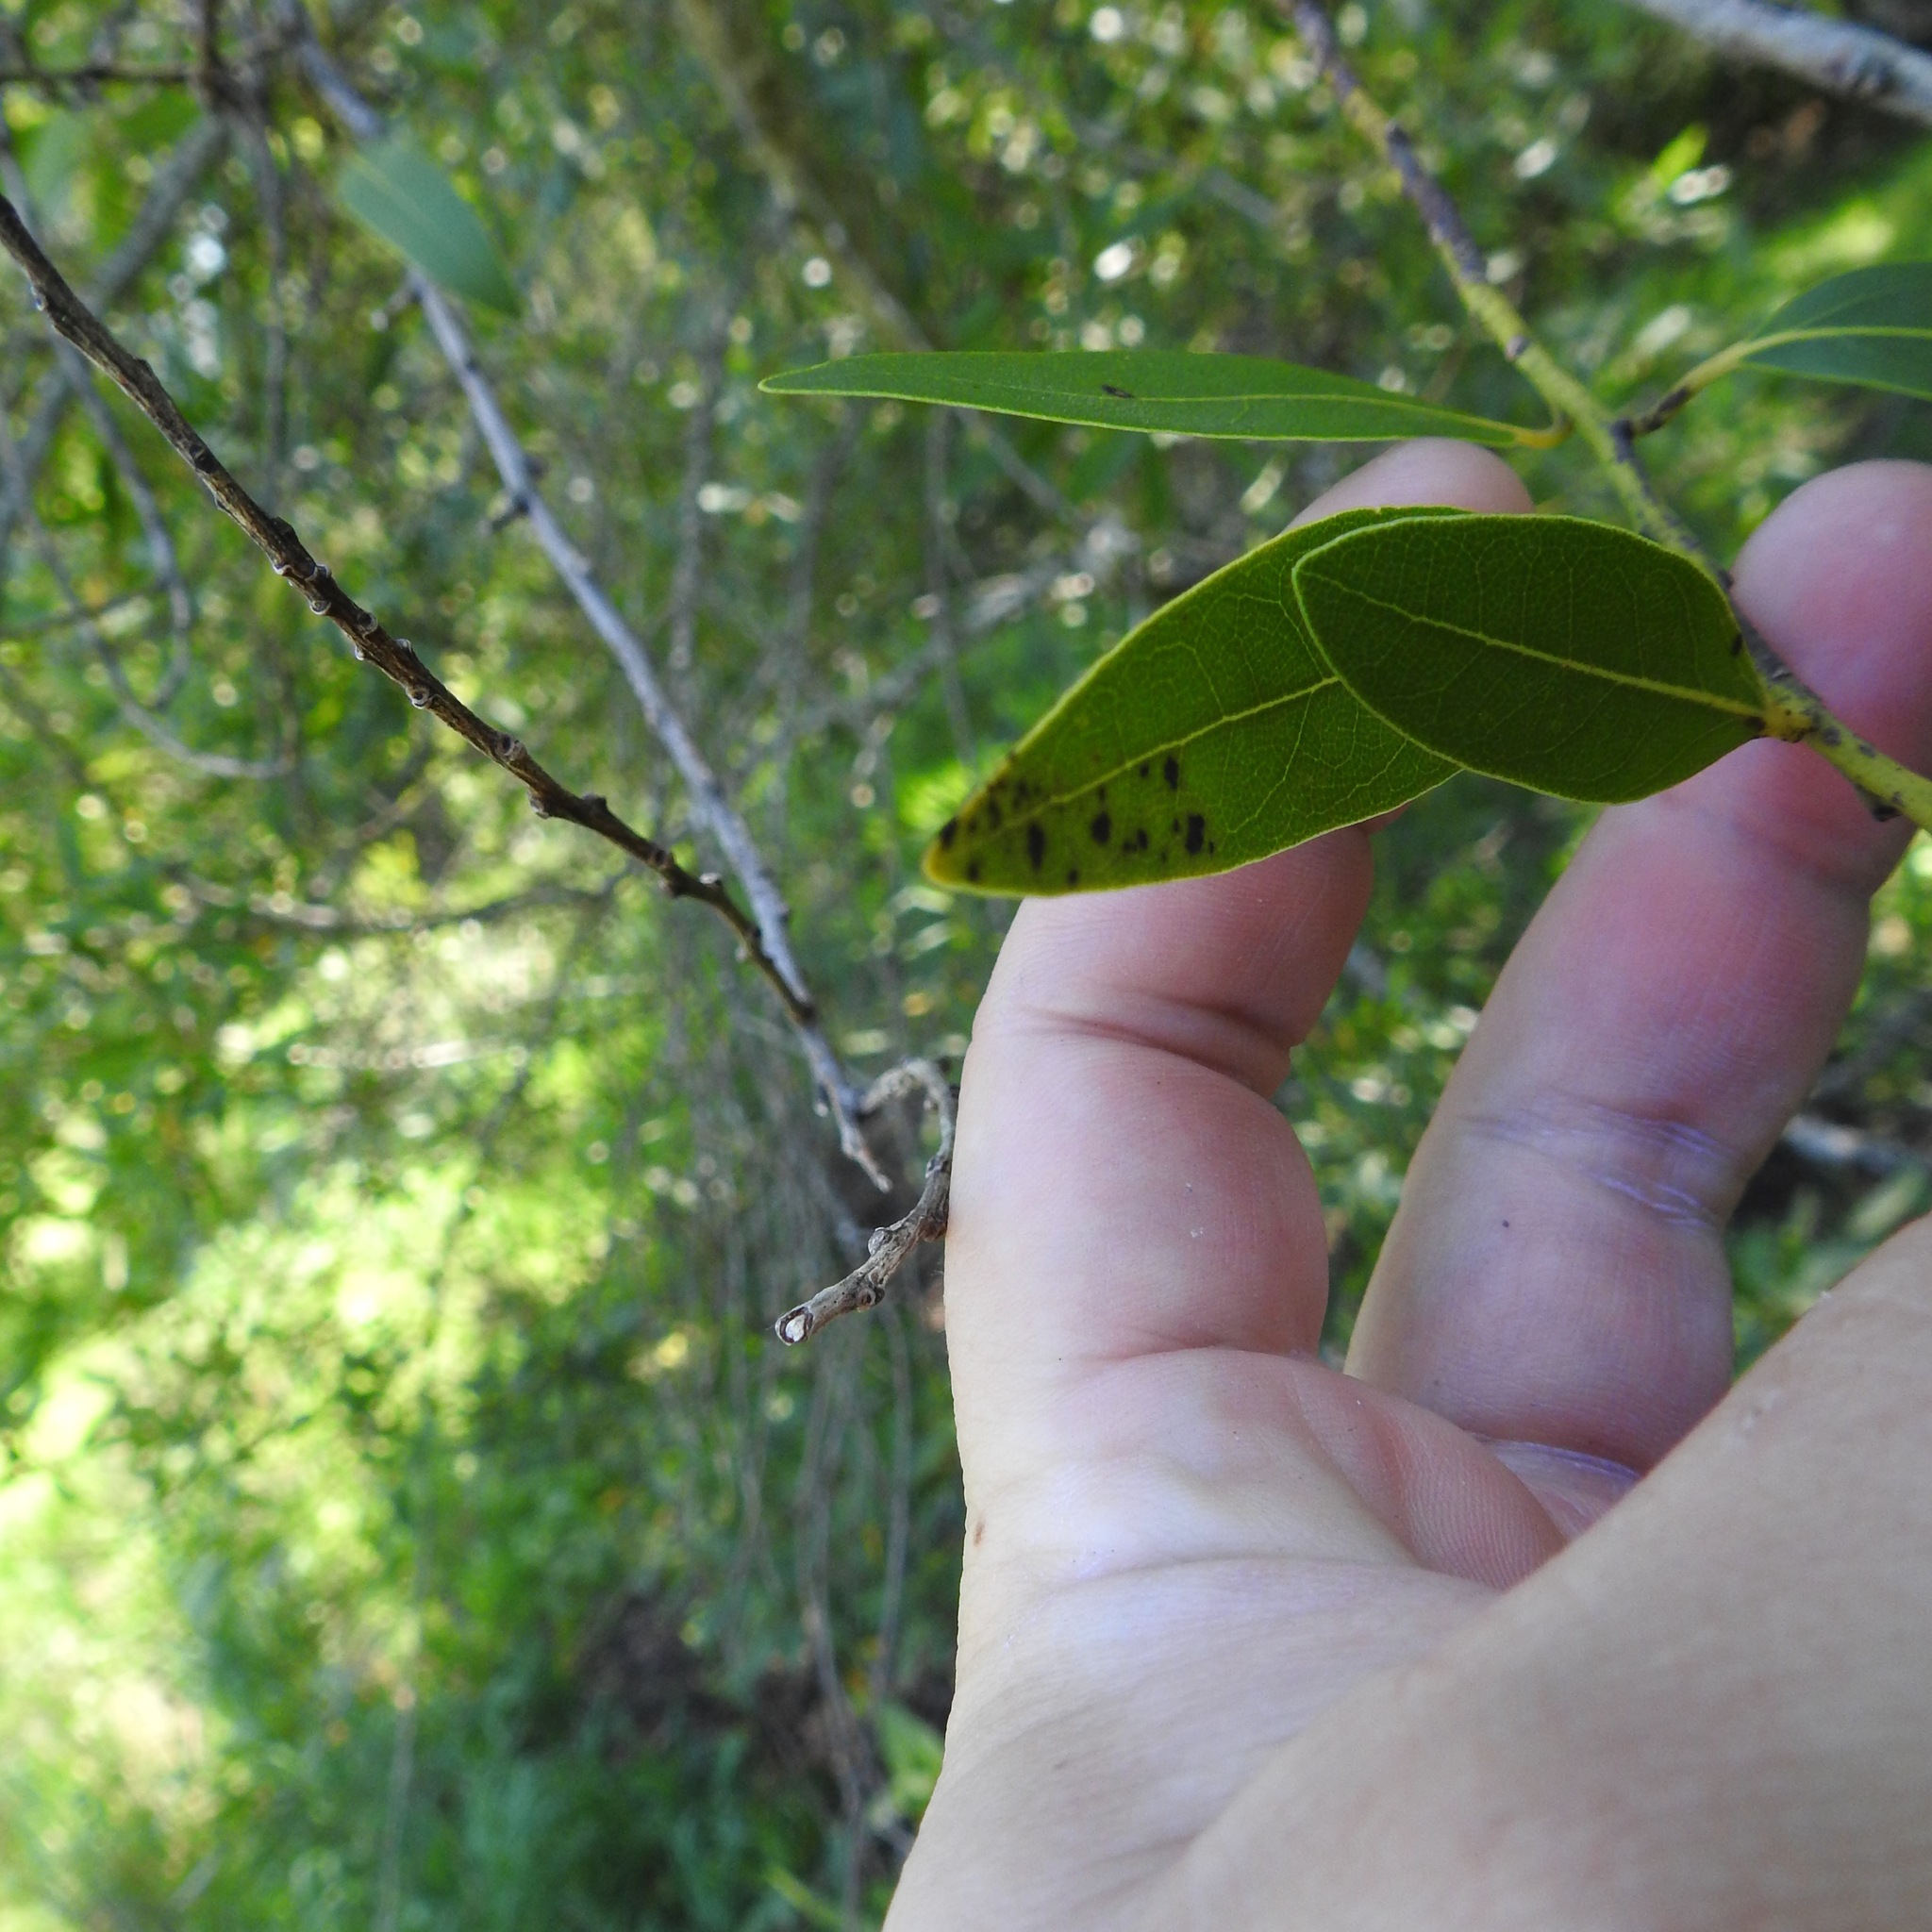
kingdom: Plantae
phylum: Tracheophyta
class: Magnoliopsida
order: Laurales
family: Lauraceae
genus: Umbellularia
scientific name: Umbellularia californica
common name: California bay
